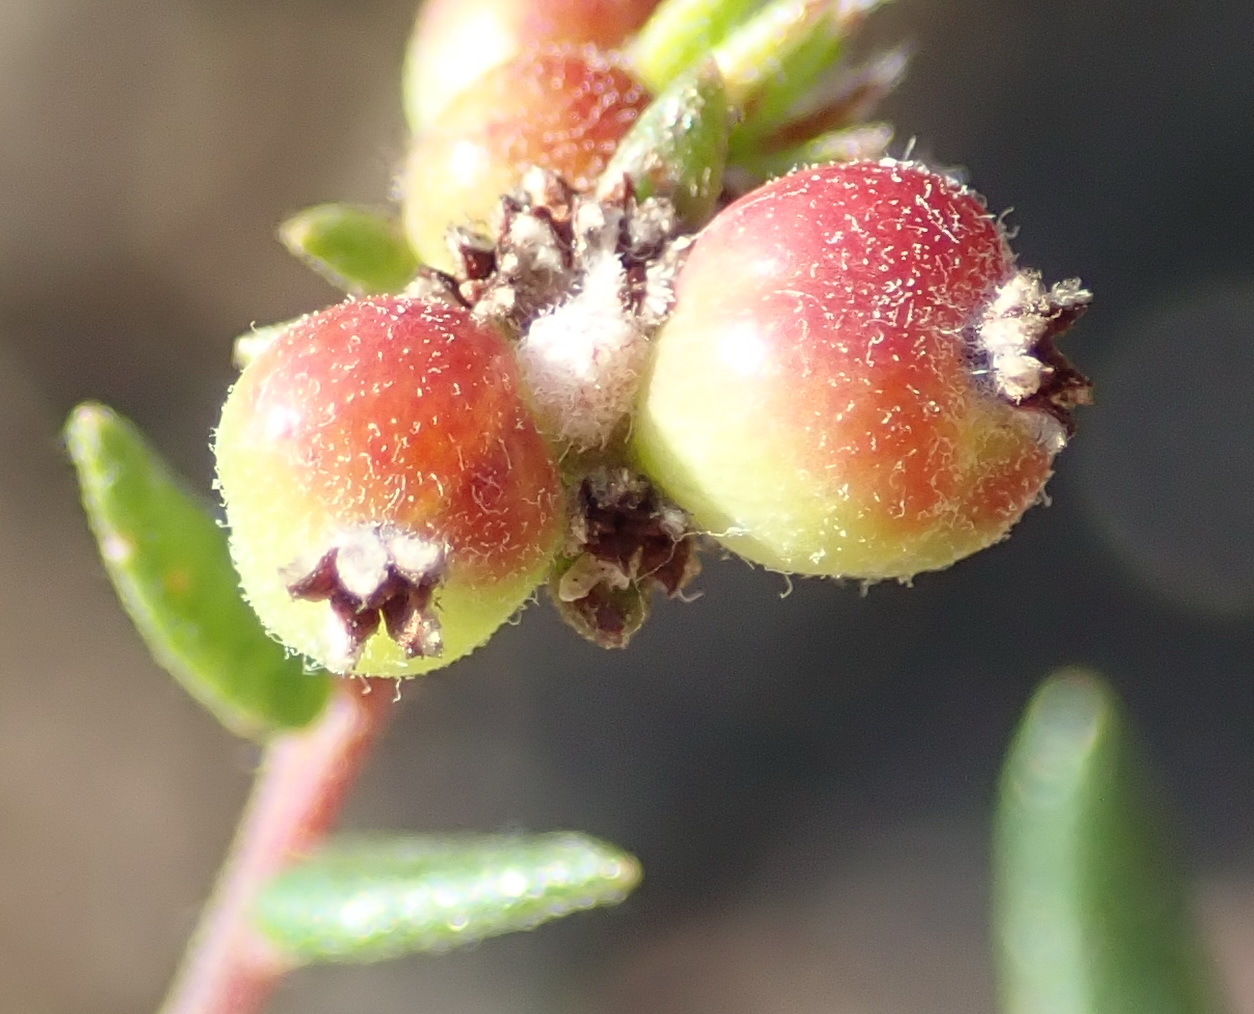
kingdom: Plantae
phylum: Tracheophyta
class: Magnoliopsida
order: Rosales
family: Rhamnaceae
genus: Phylica
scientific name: Phylica parviflora
